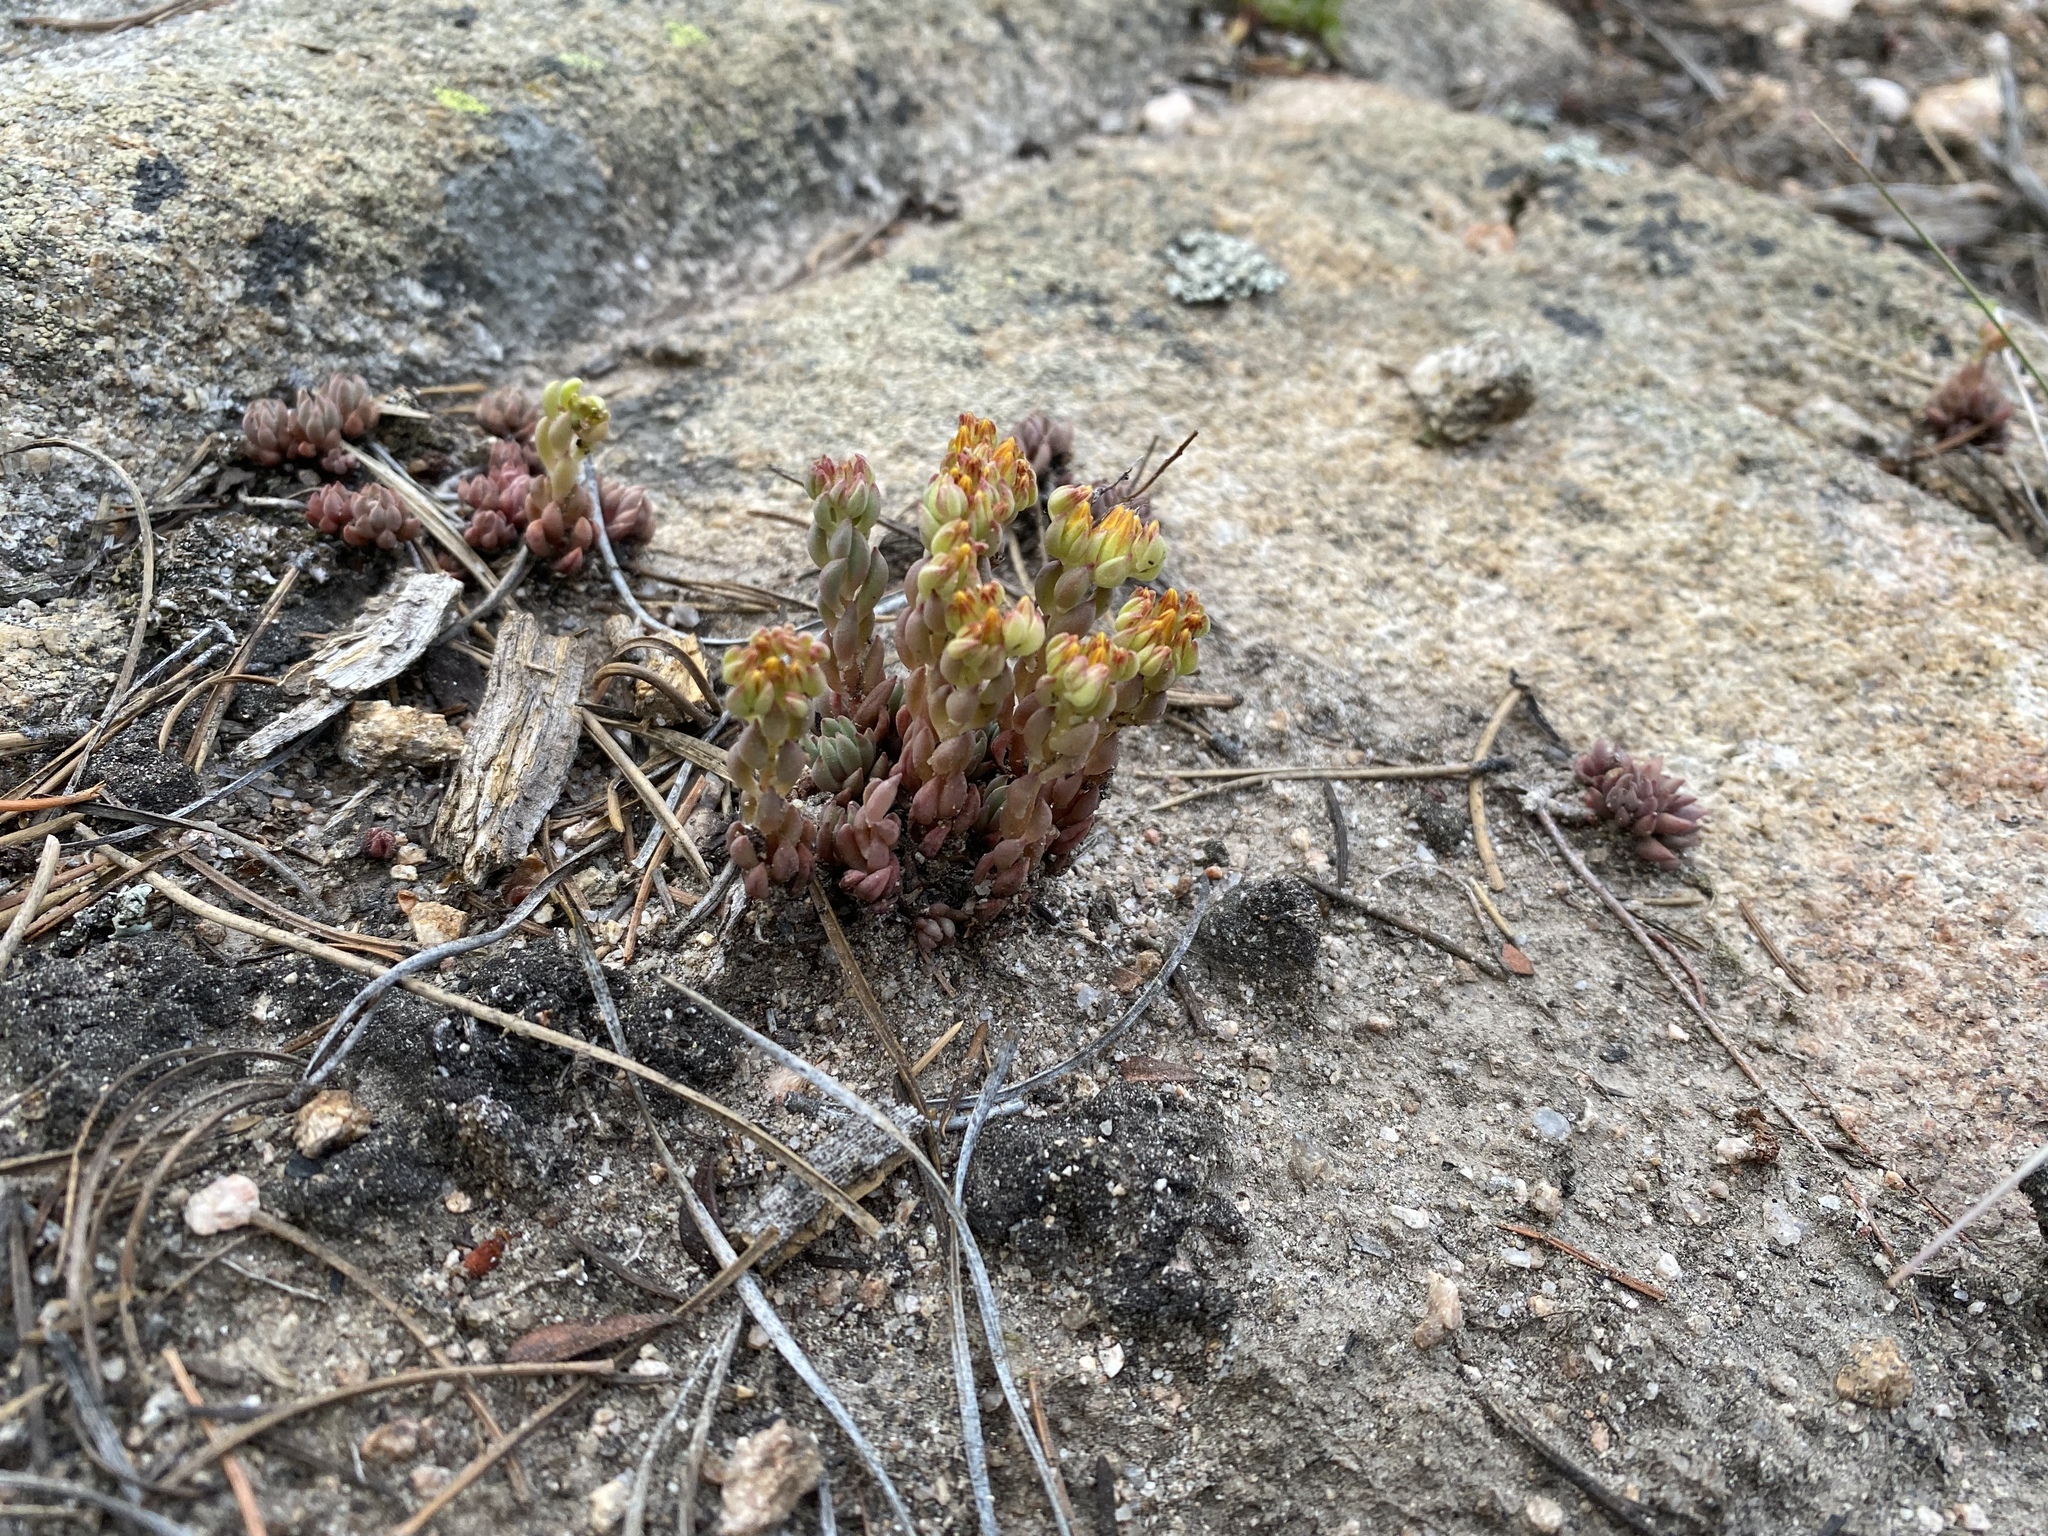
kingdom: Plantae
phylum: Tracheophyta
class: Magnoliopsida
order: Saxifragales
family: Crassulaceae
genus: Sedum
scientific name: Sedum lanceolatum
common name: Common stonecrop
